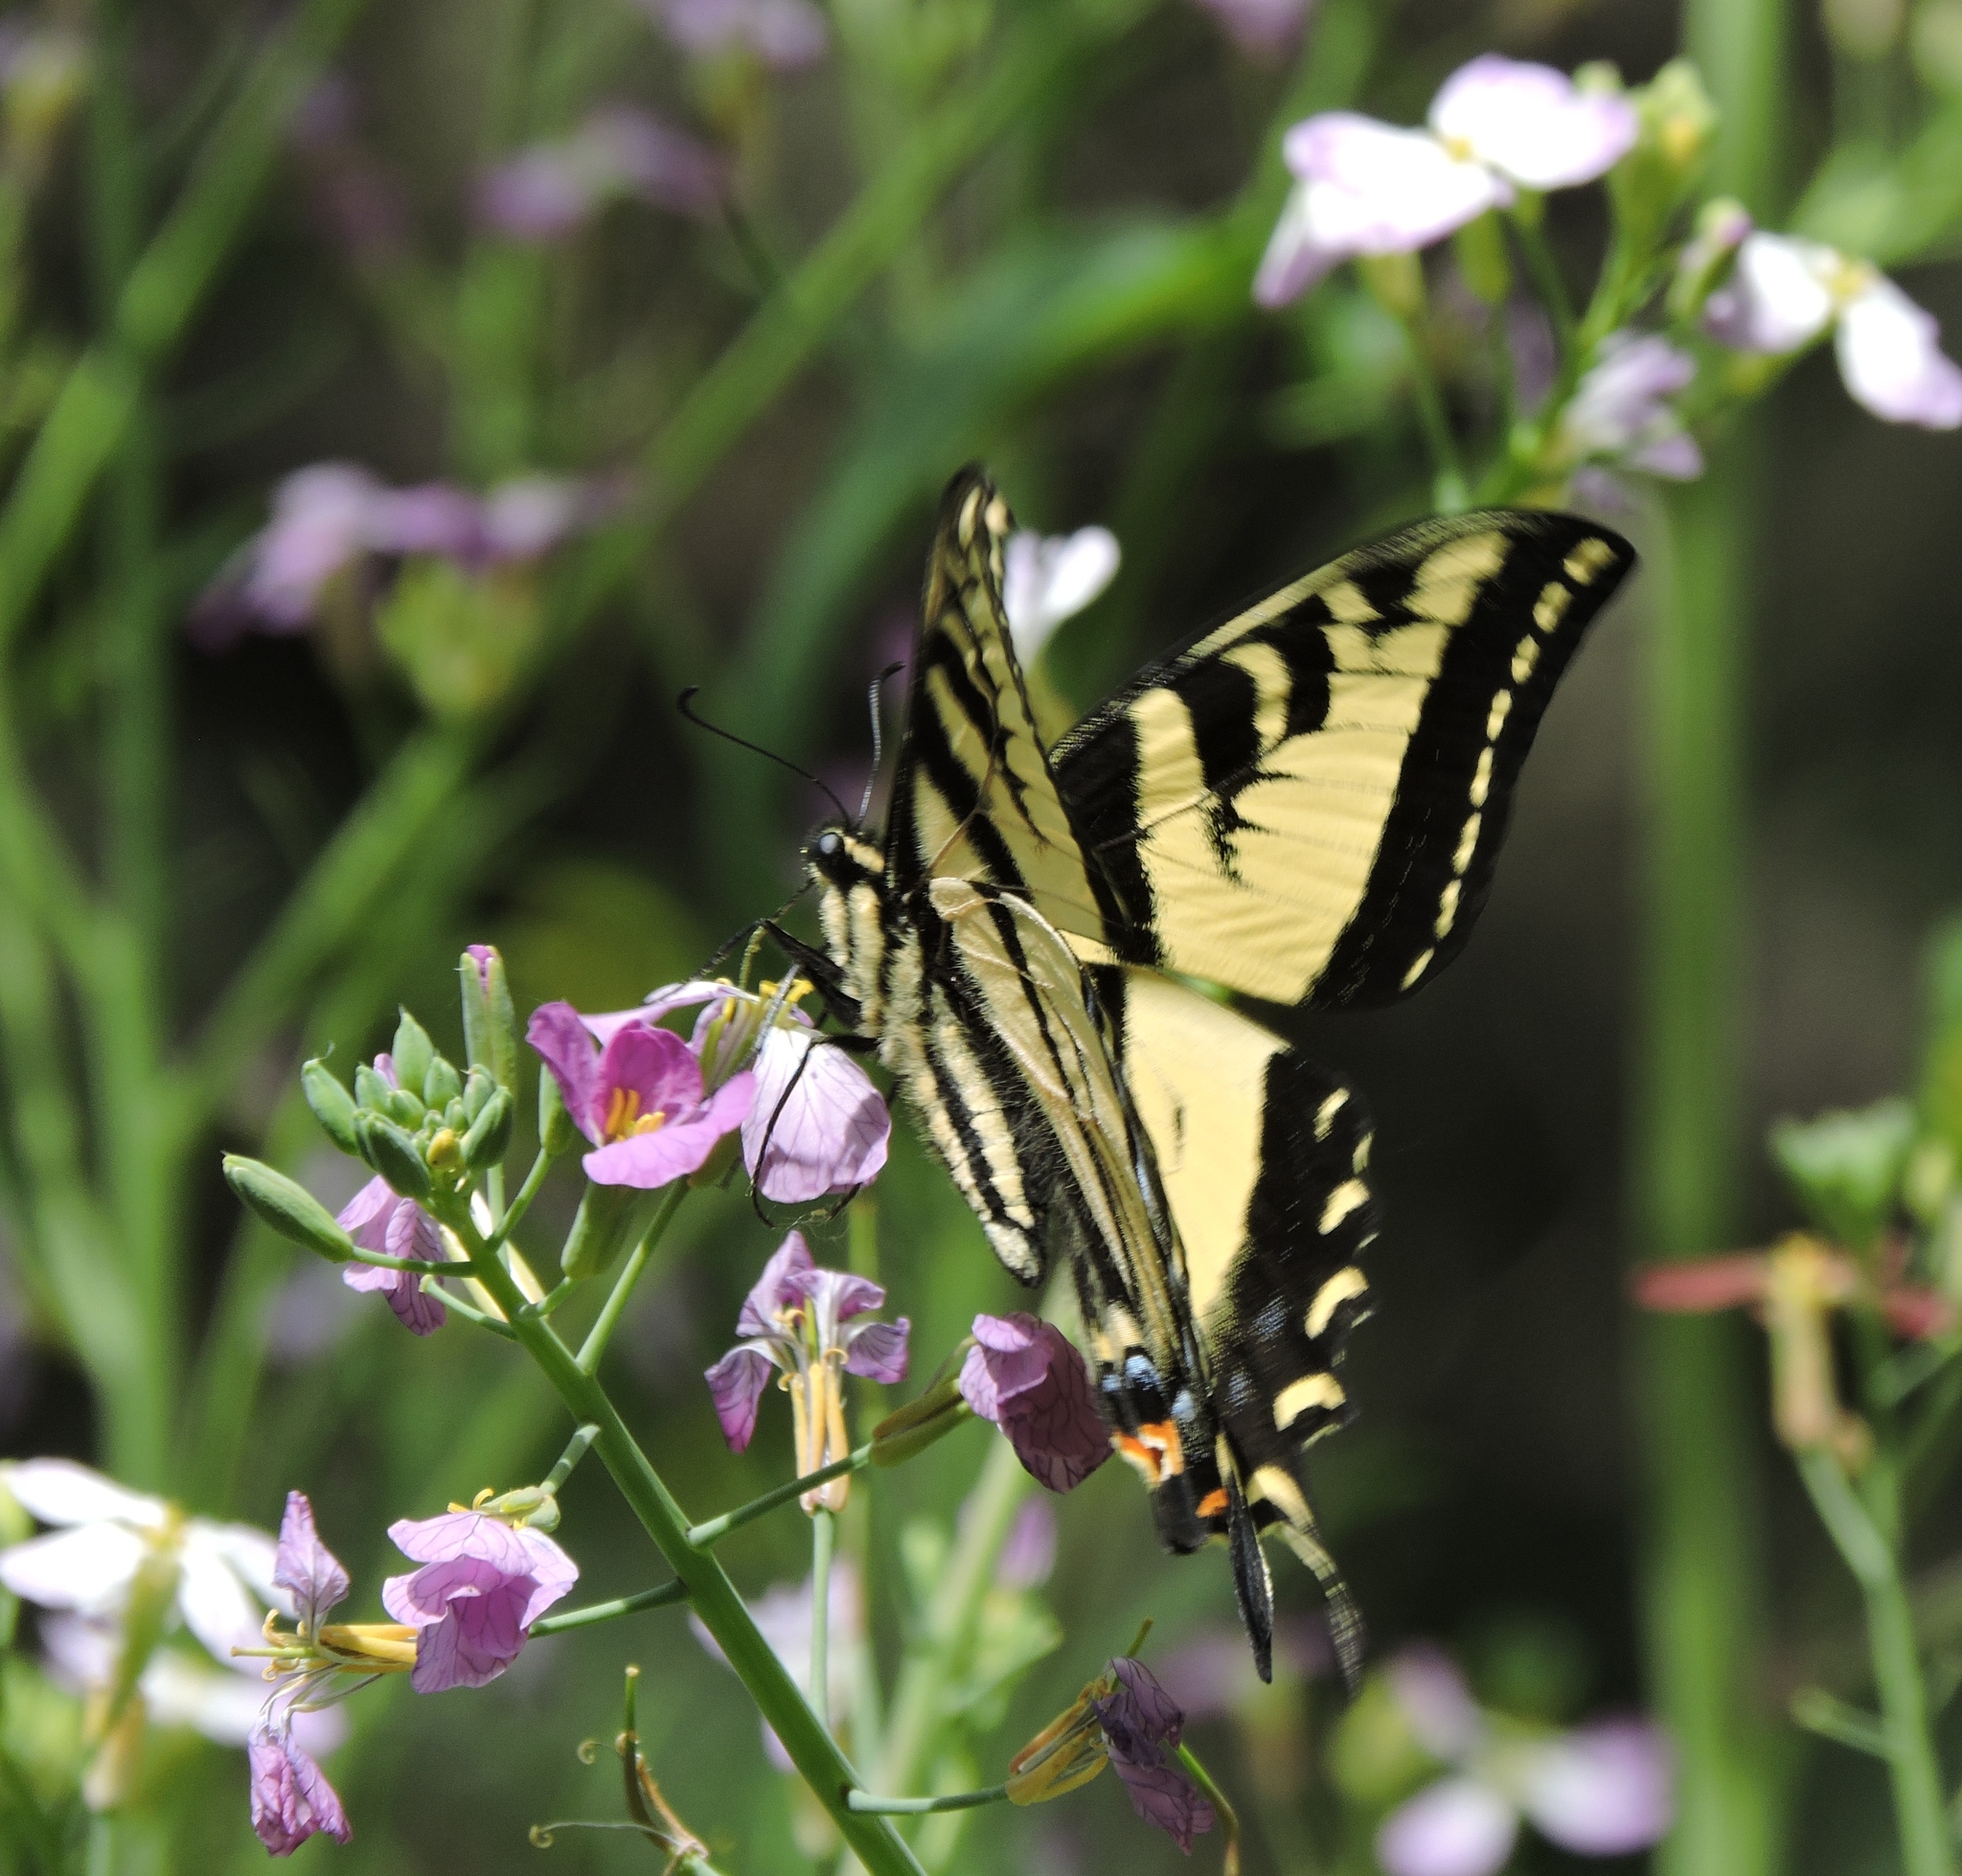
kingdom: Animalia
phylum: Arthropoda
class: Insecta
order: Lepidoptera
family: Papilionidae
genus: Papilio
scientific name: Papilio rutulus
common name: Western tiger swallowtail
